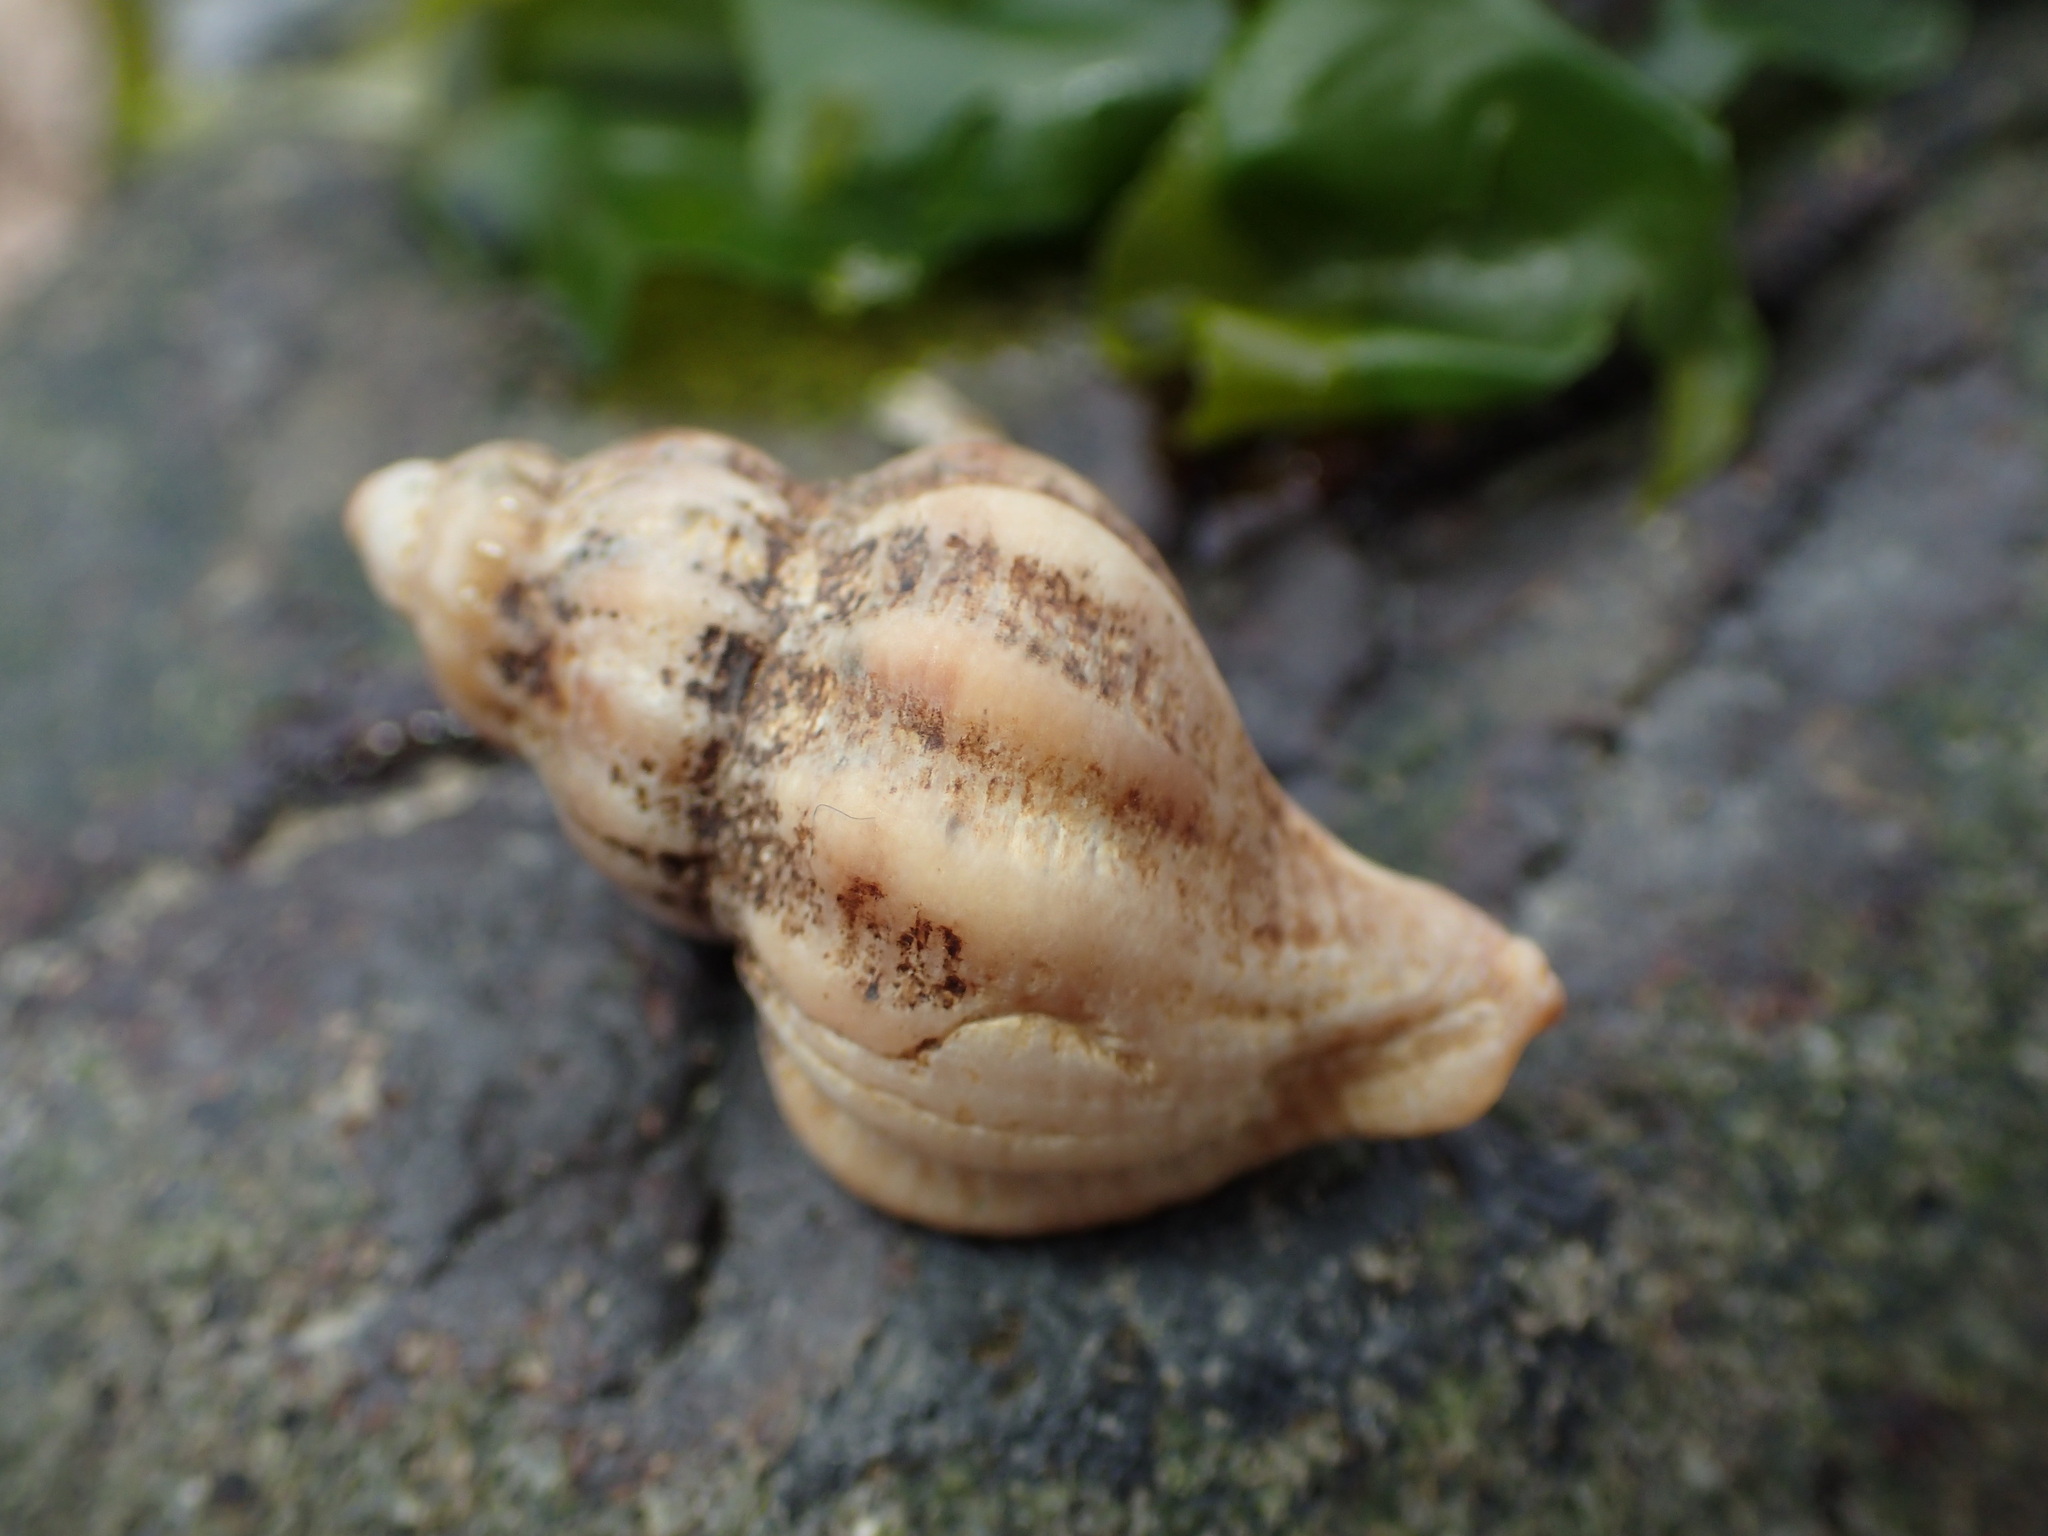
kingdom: Animalia
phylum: Mollusca
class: Gastropoda
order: Neogastropoda
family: Muricidae
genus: Urosalpinx
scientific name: Urosalpinx cinerea
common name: American sting winkle
